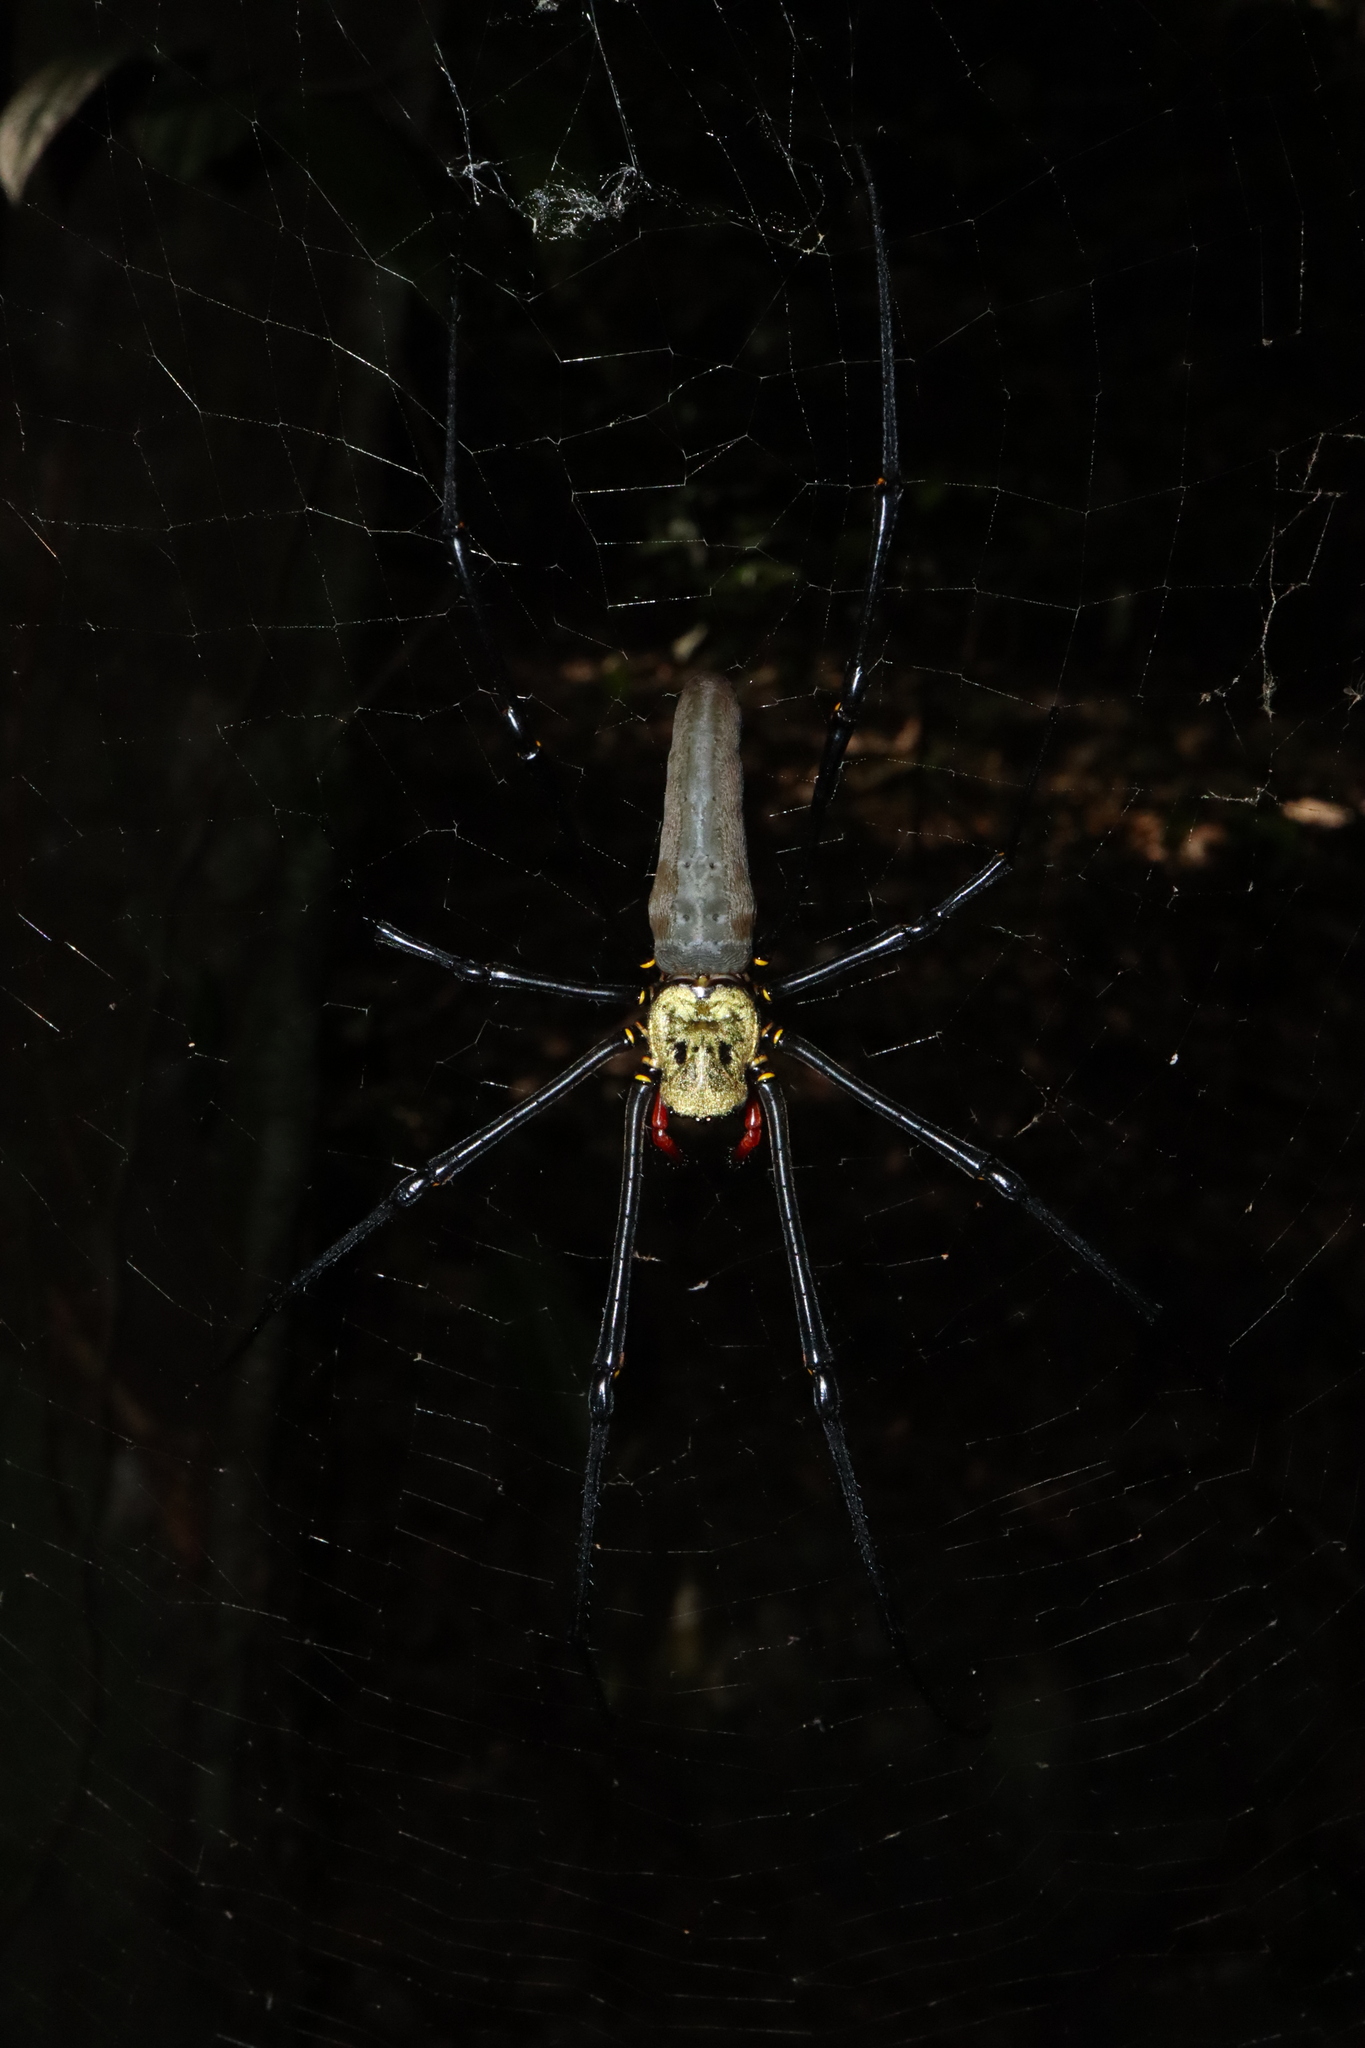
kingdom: Animalia
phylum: Arthropoda
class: Arachnida
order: Araneae
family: Araneidae
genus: Nephila
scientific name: Nephila pilipes
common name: Giant golden orb weaver
